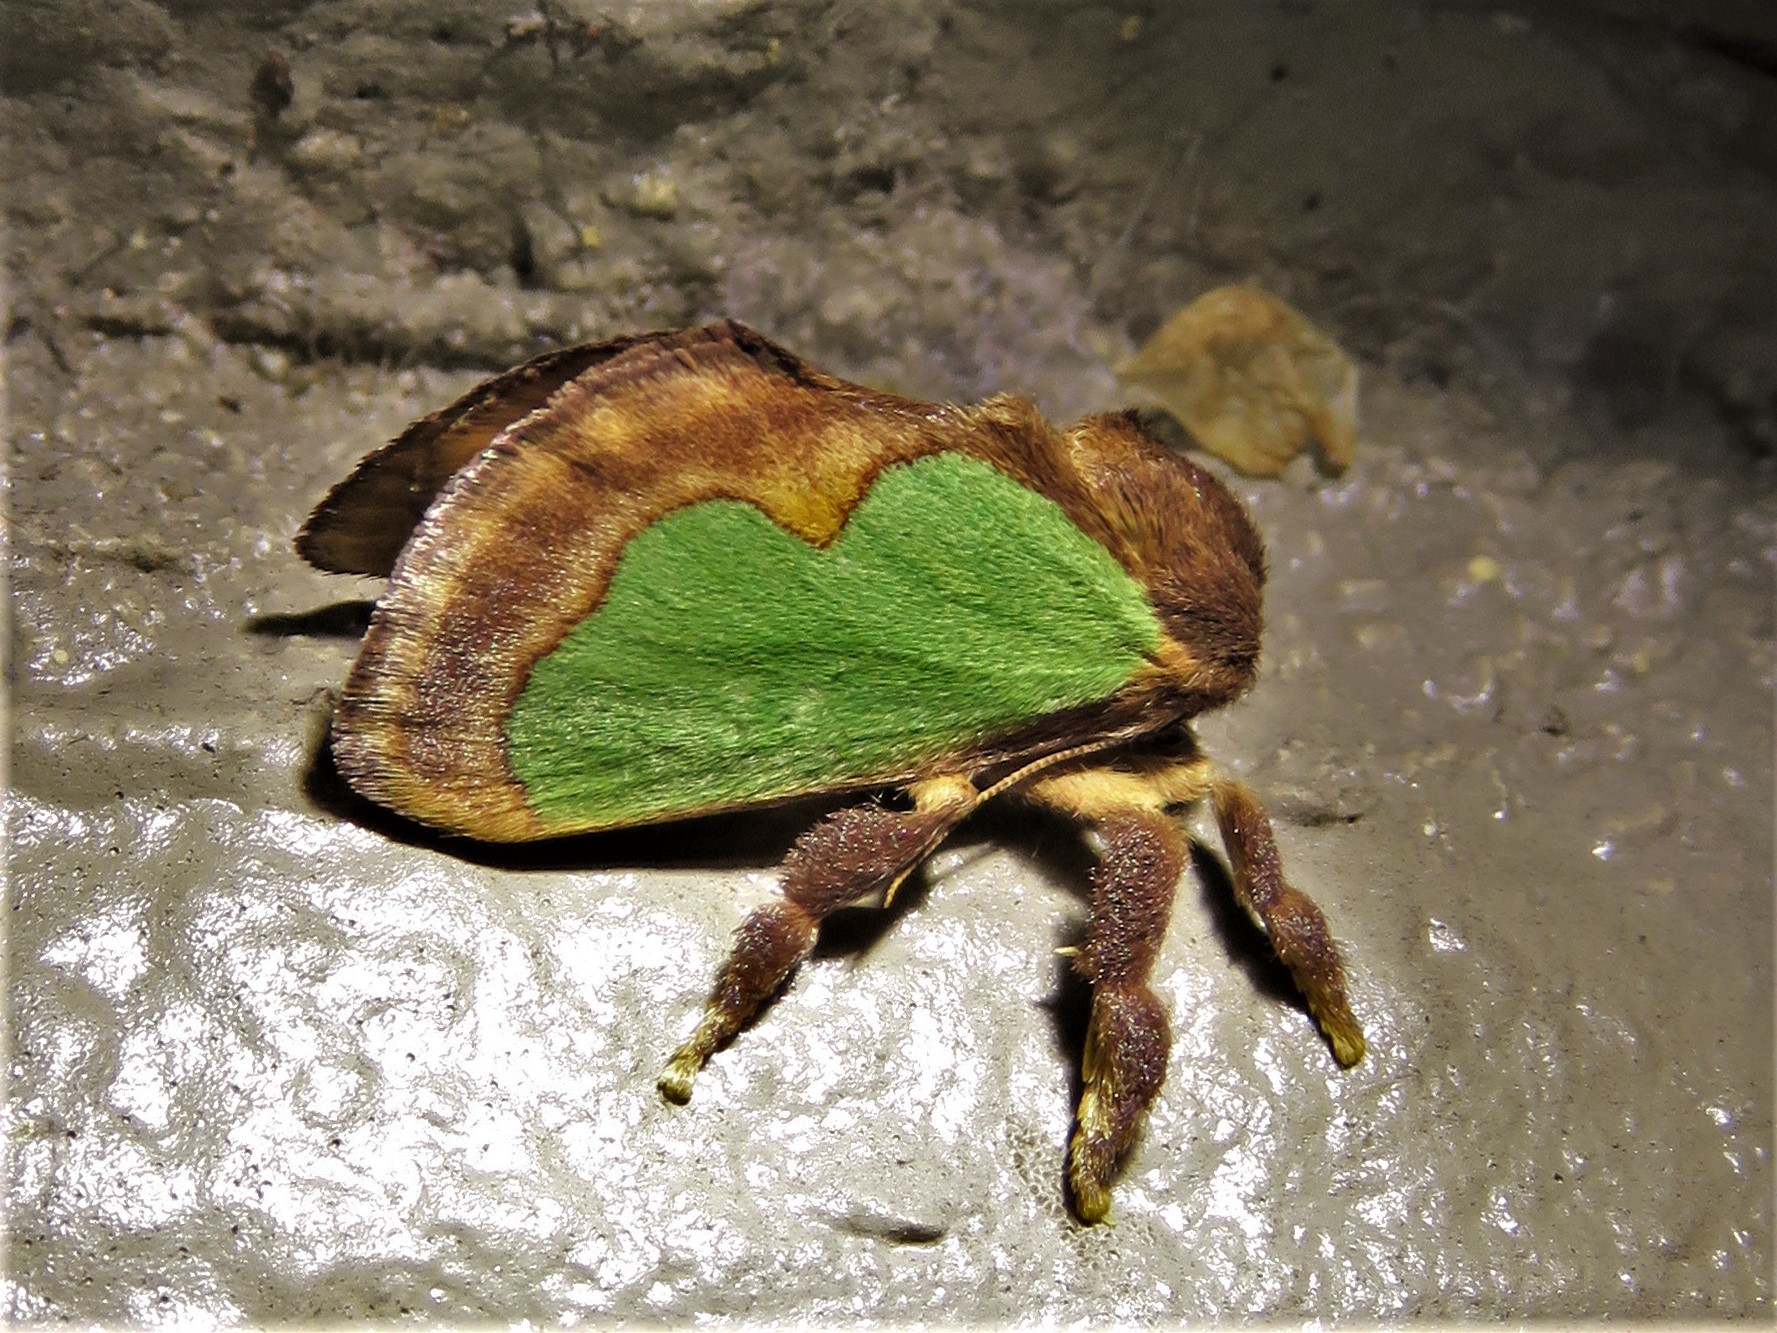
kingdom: Animalia
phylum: Arthropoda
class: Insecta
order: Lepidoptera
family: Limacodidae
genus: Euclea
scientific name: Euclea incisa
